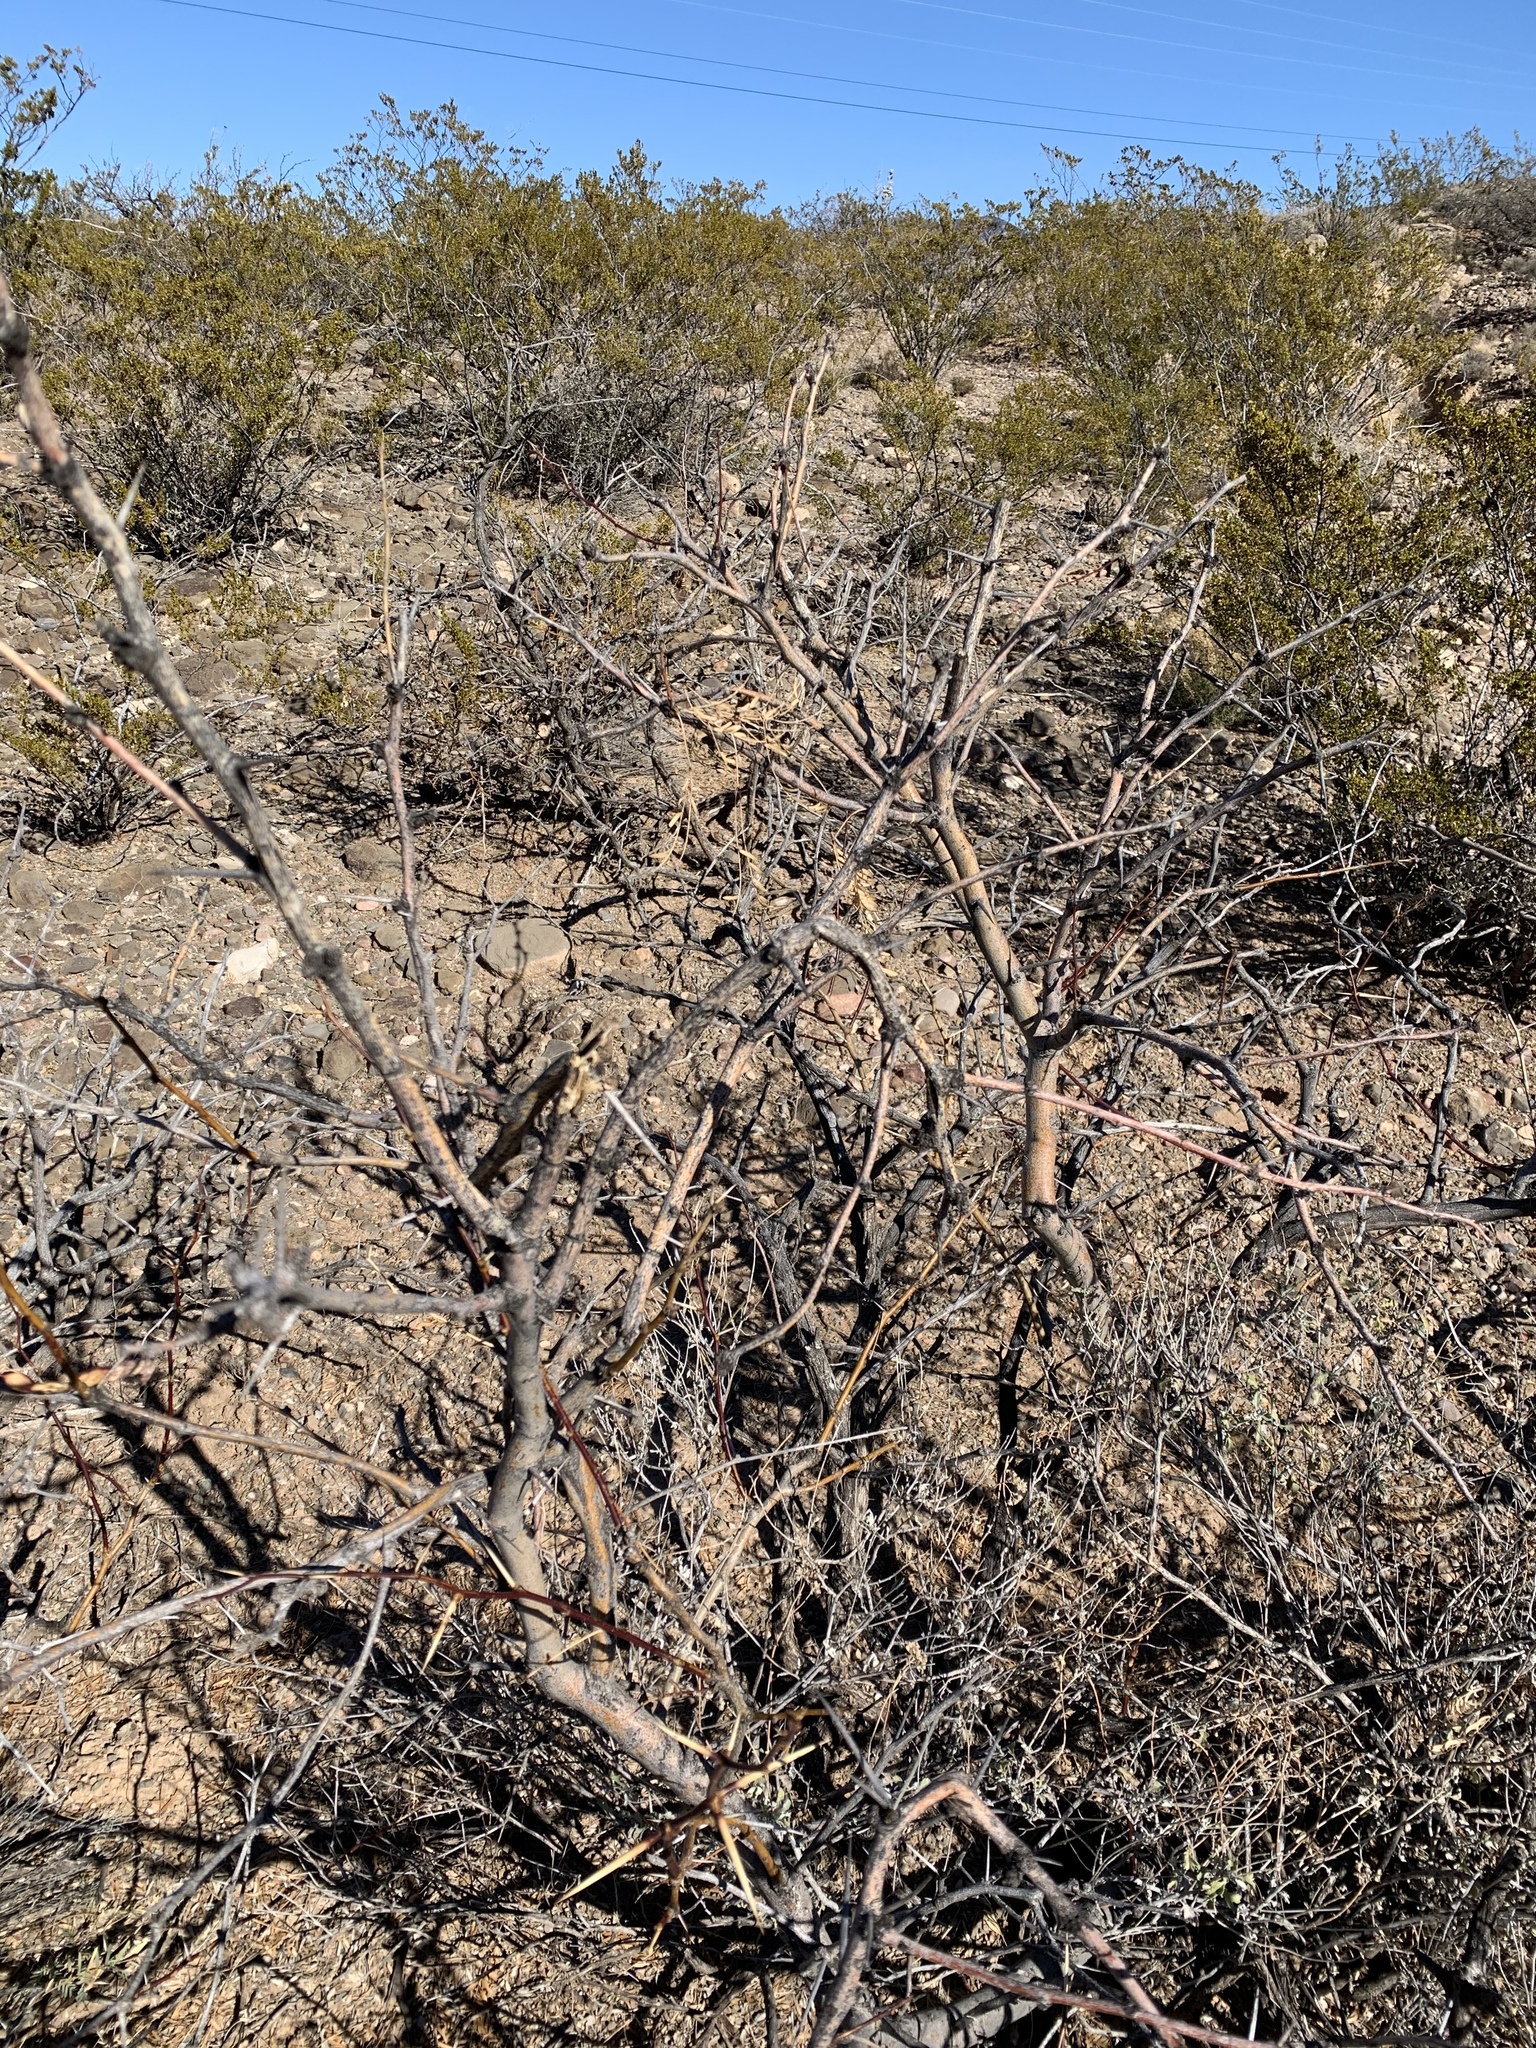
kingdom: Plantae
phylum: Tracheophyta
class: Magnoliopsida
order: Fabales
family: Fabaceae
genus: Prosopis
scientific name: Prosopis glandulosa
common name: Honey mesquite
